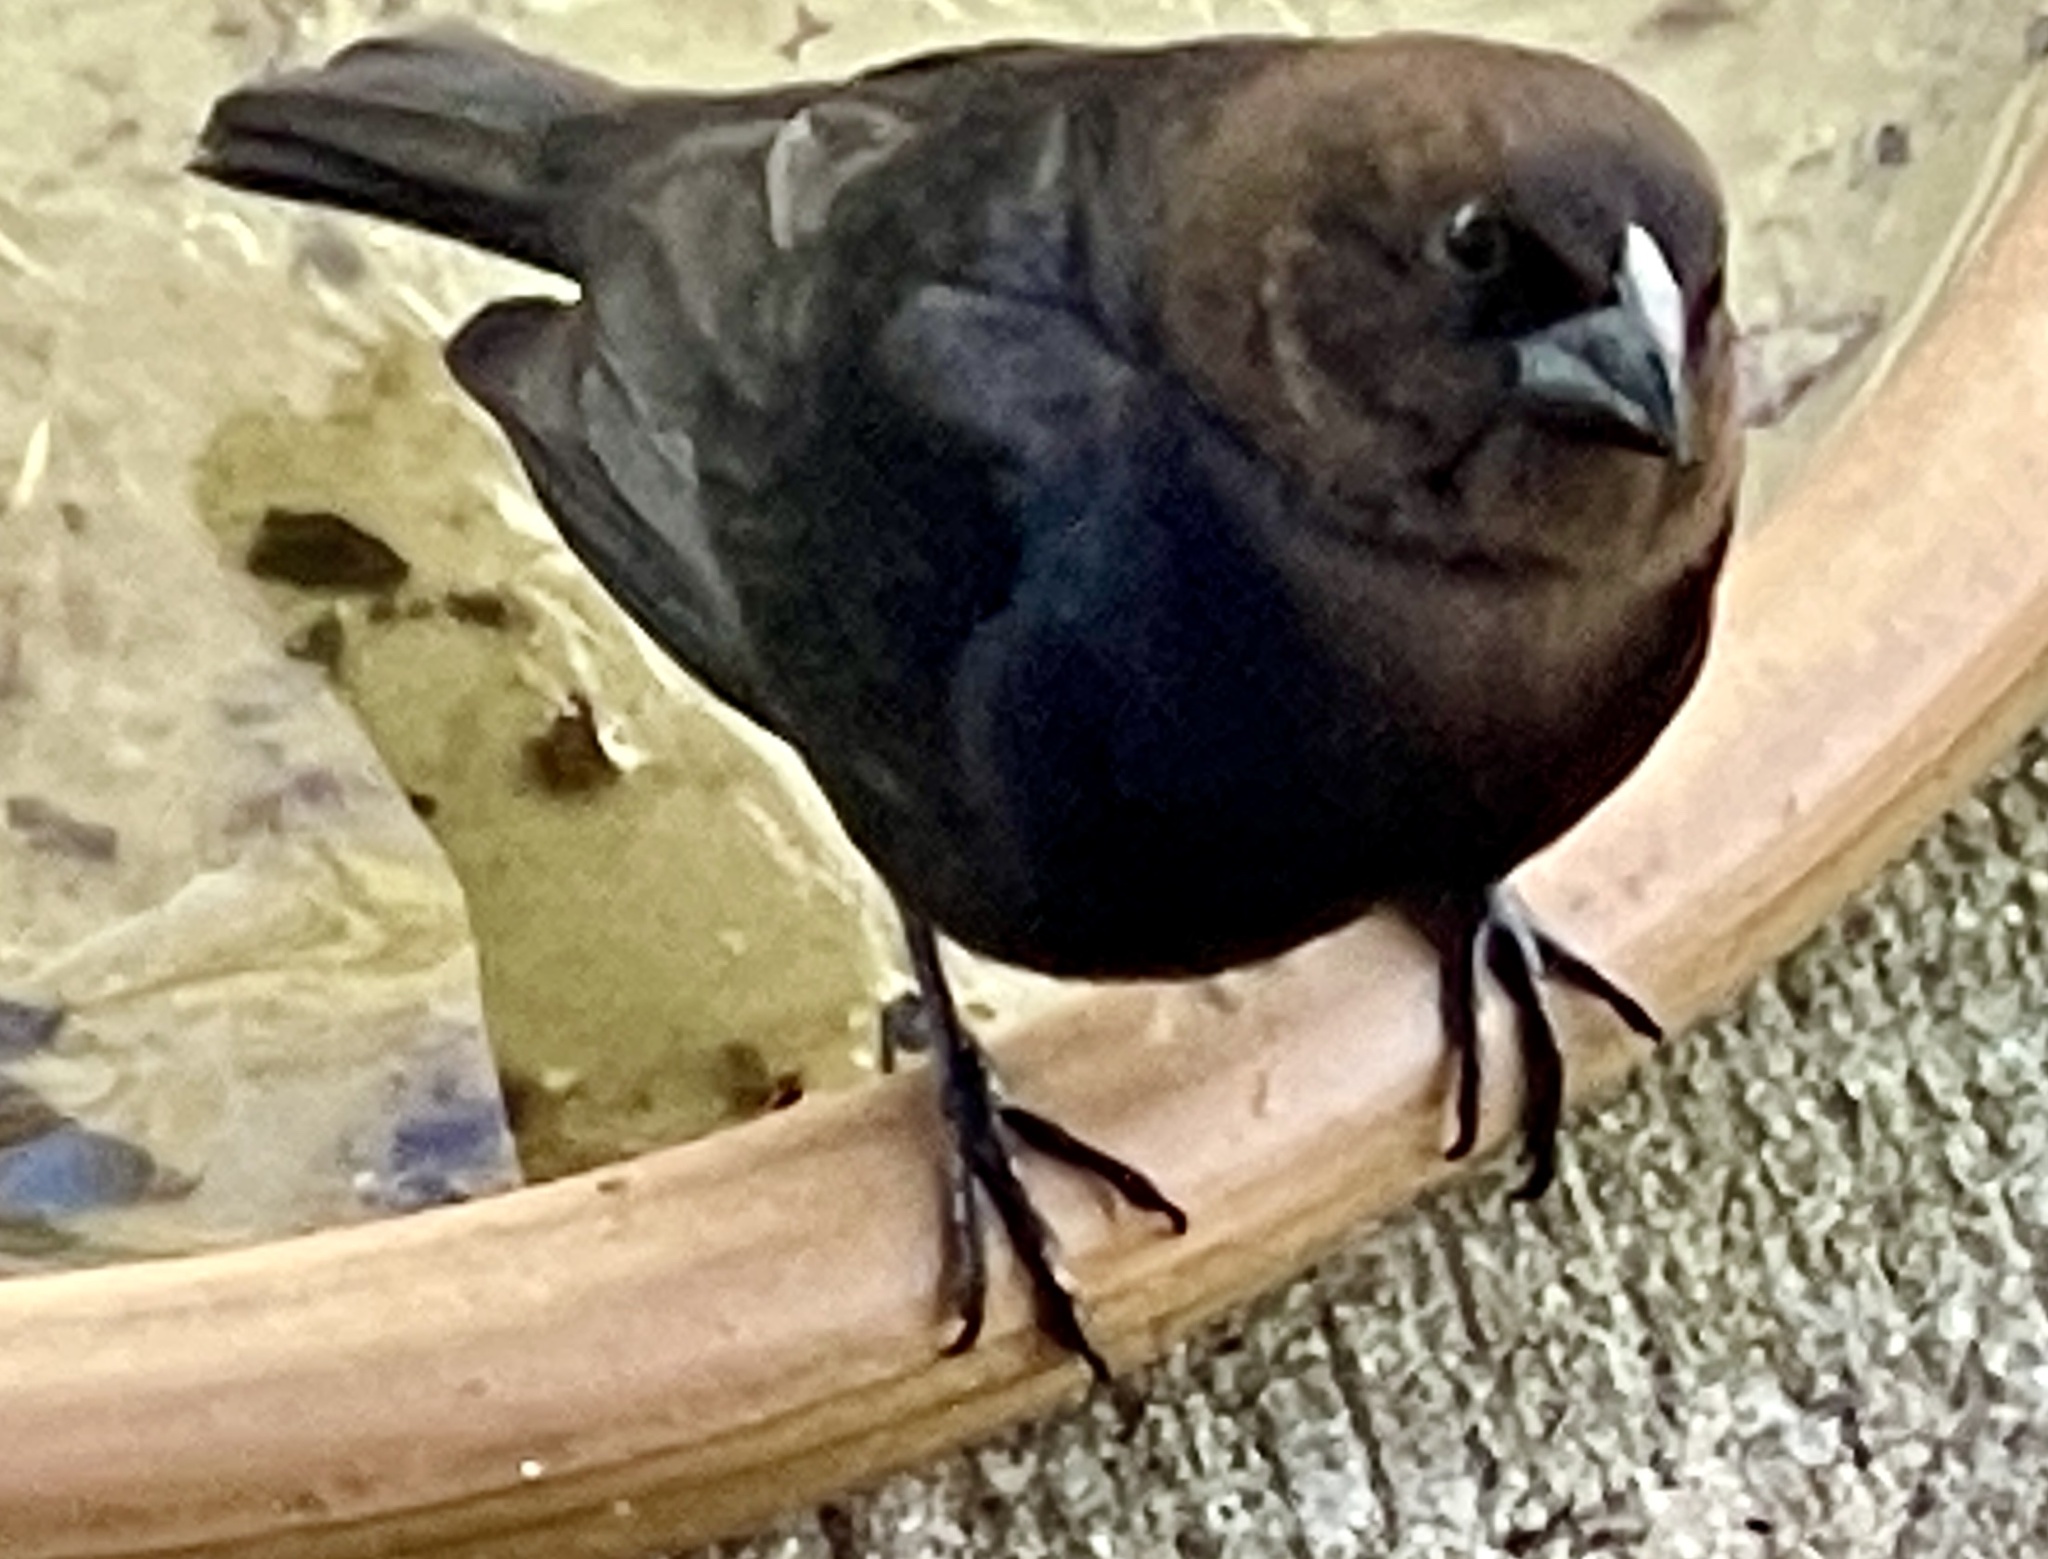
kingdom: Animalia
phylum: Chordata
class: Aves
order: Passeriformes
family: Icteridae
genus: Molothrus
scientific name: Molothrus ater
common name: Brown-headed cowbird
